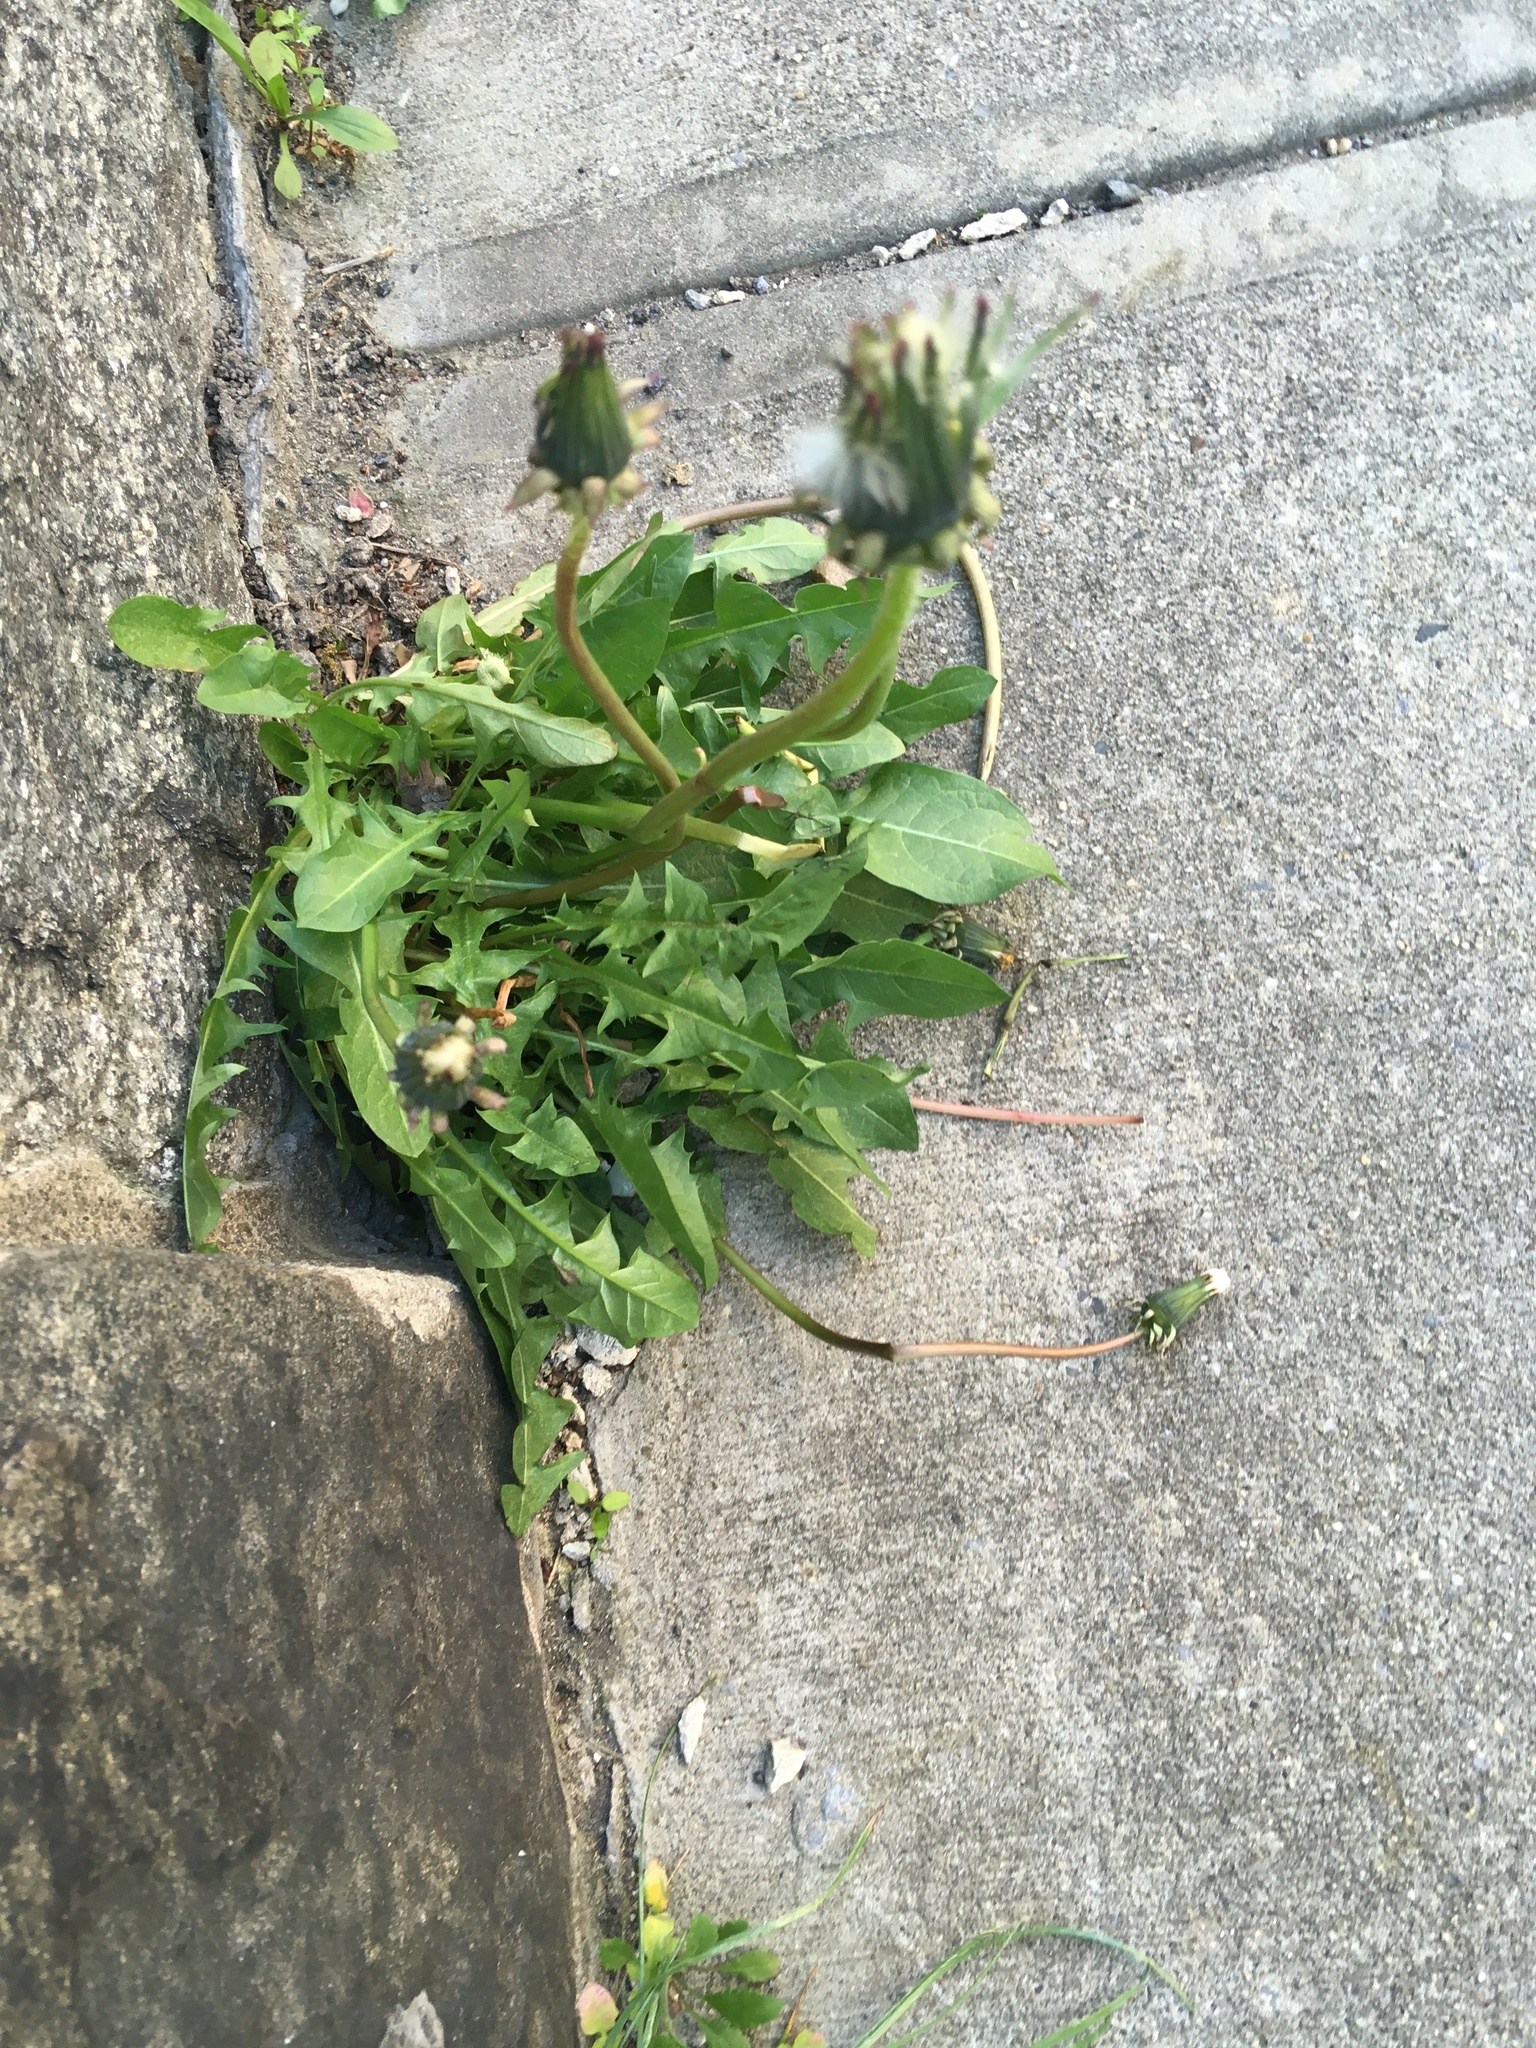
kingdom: Plantae
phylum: Tracheophyta
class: Magnoliopsida
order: Asterales
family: Asteraceae
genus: Taraxacum
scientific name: Taraxacum officinale
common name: Common dandelion
